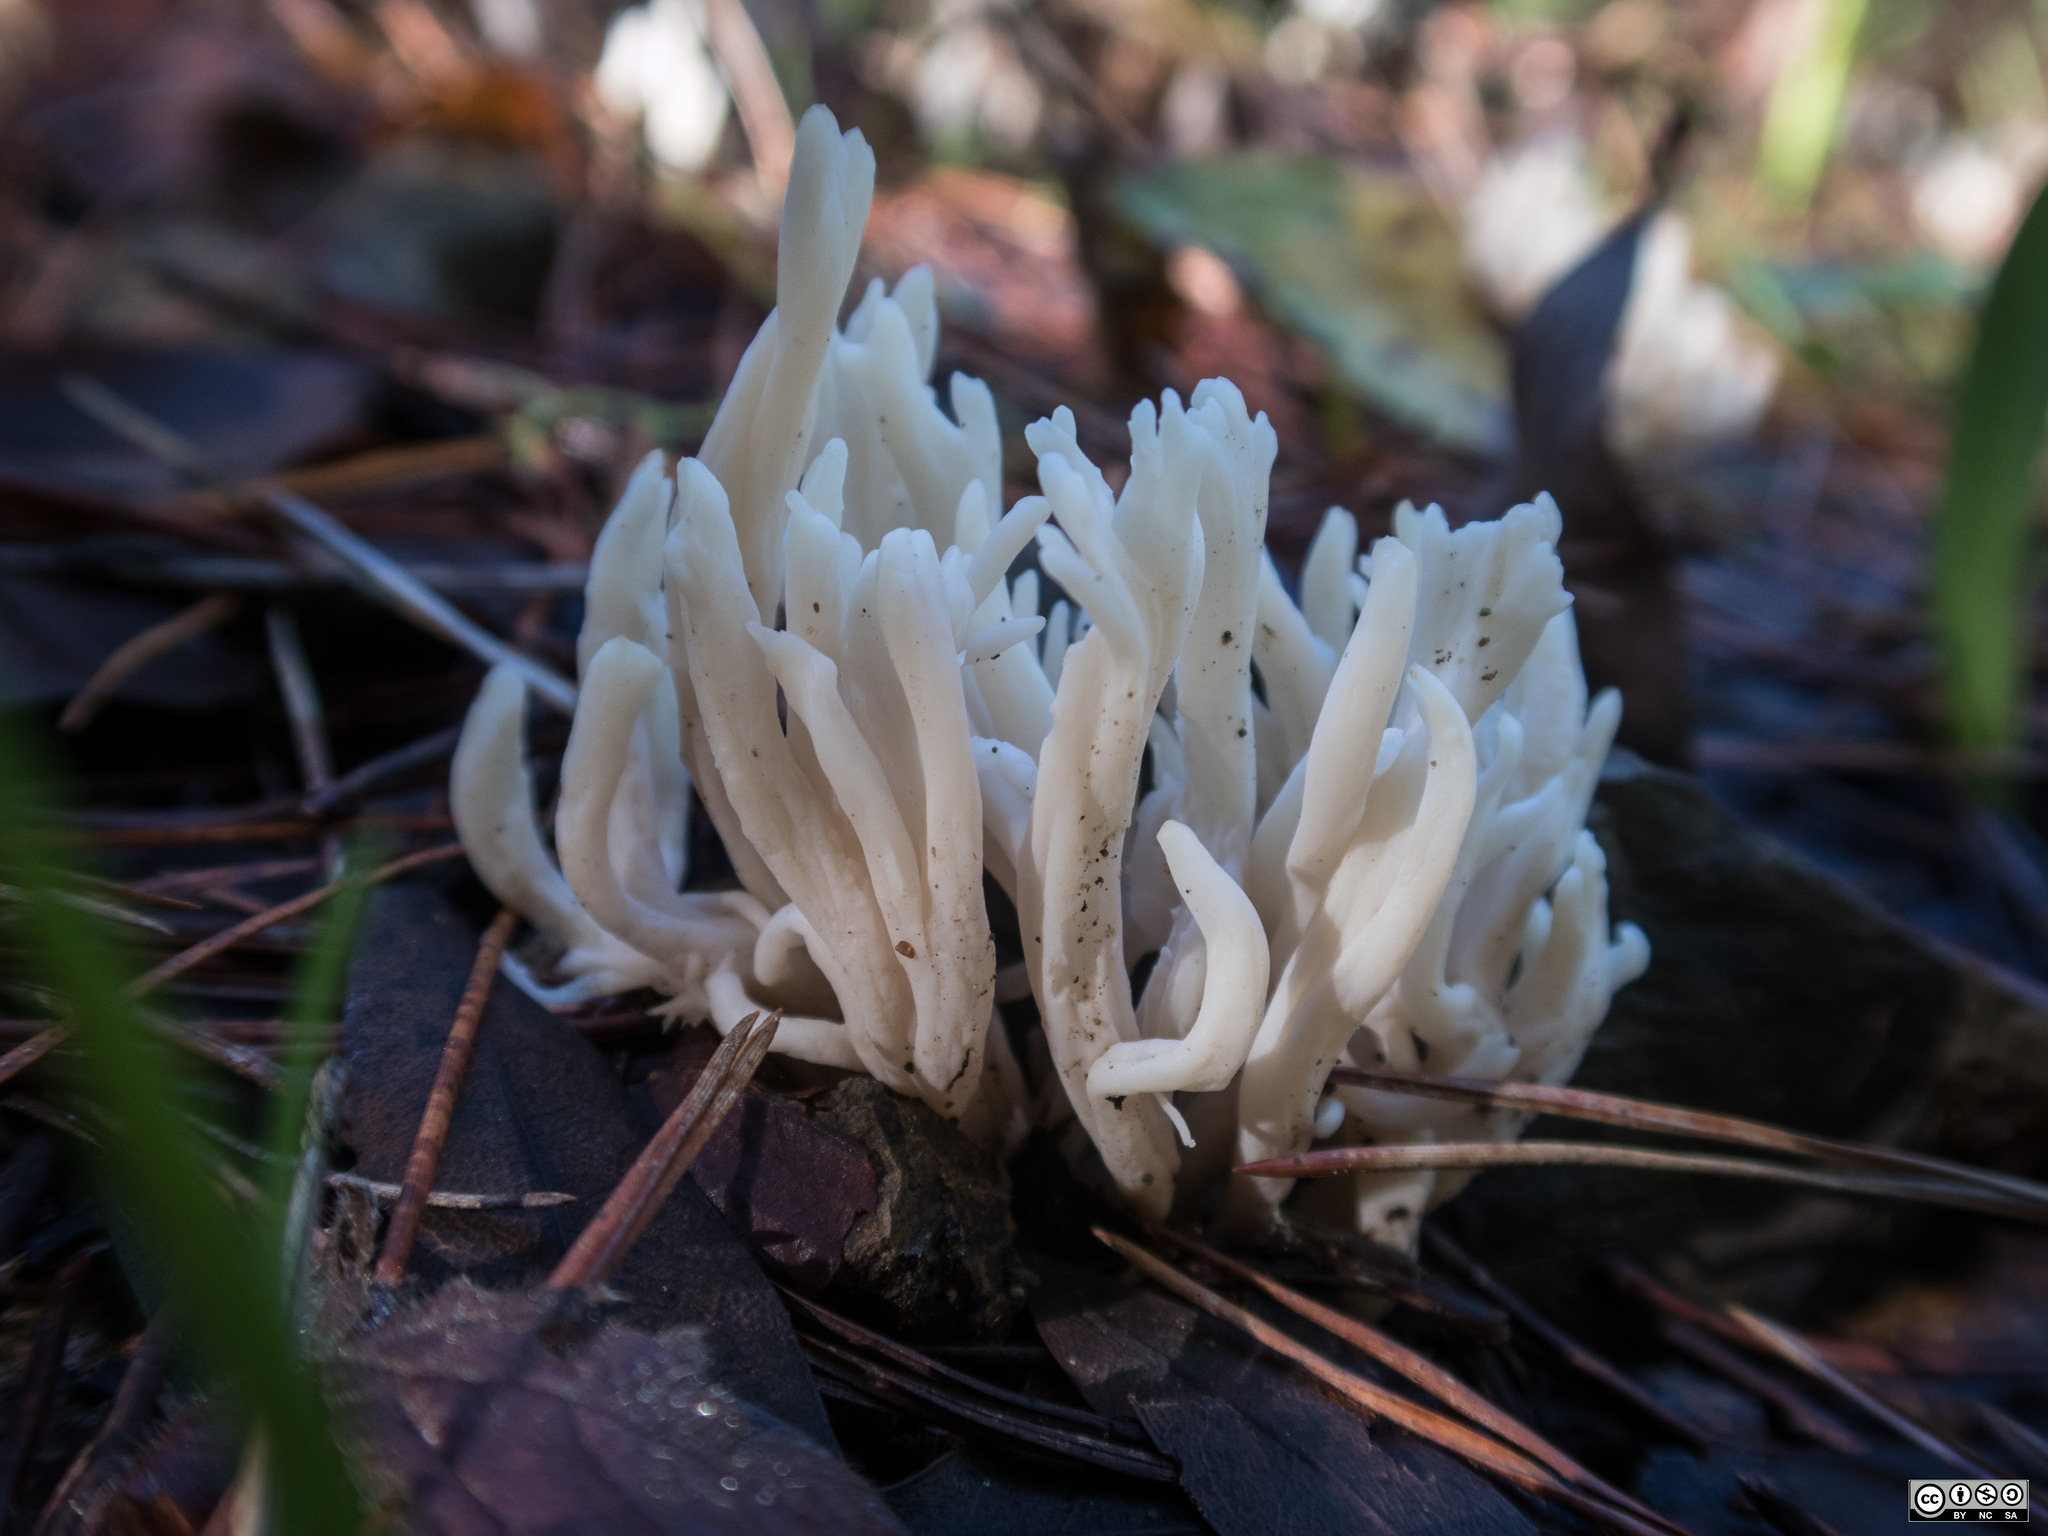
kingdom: Fungi
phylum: Basidiomycota
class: Agaricomycetes
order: Agaricales
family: Clavariaceae
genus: Clavaria
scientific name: Clavaria fragilis
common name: White spindles
